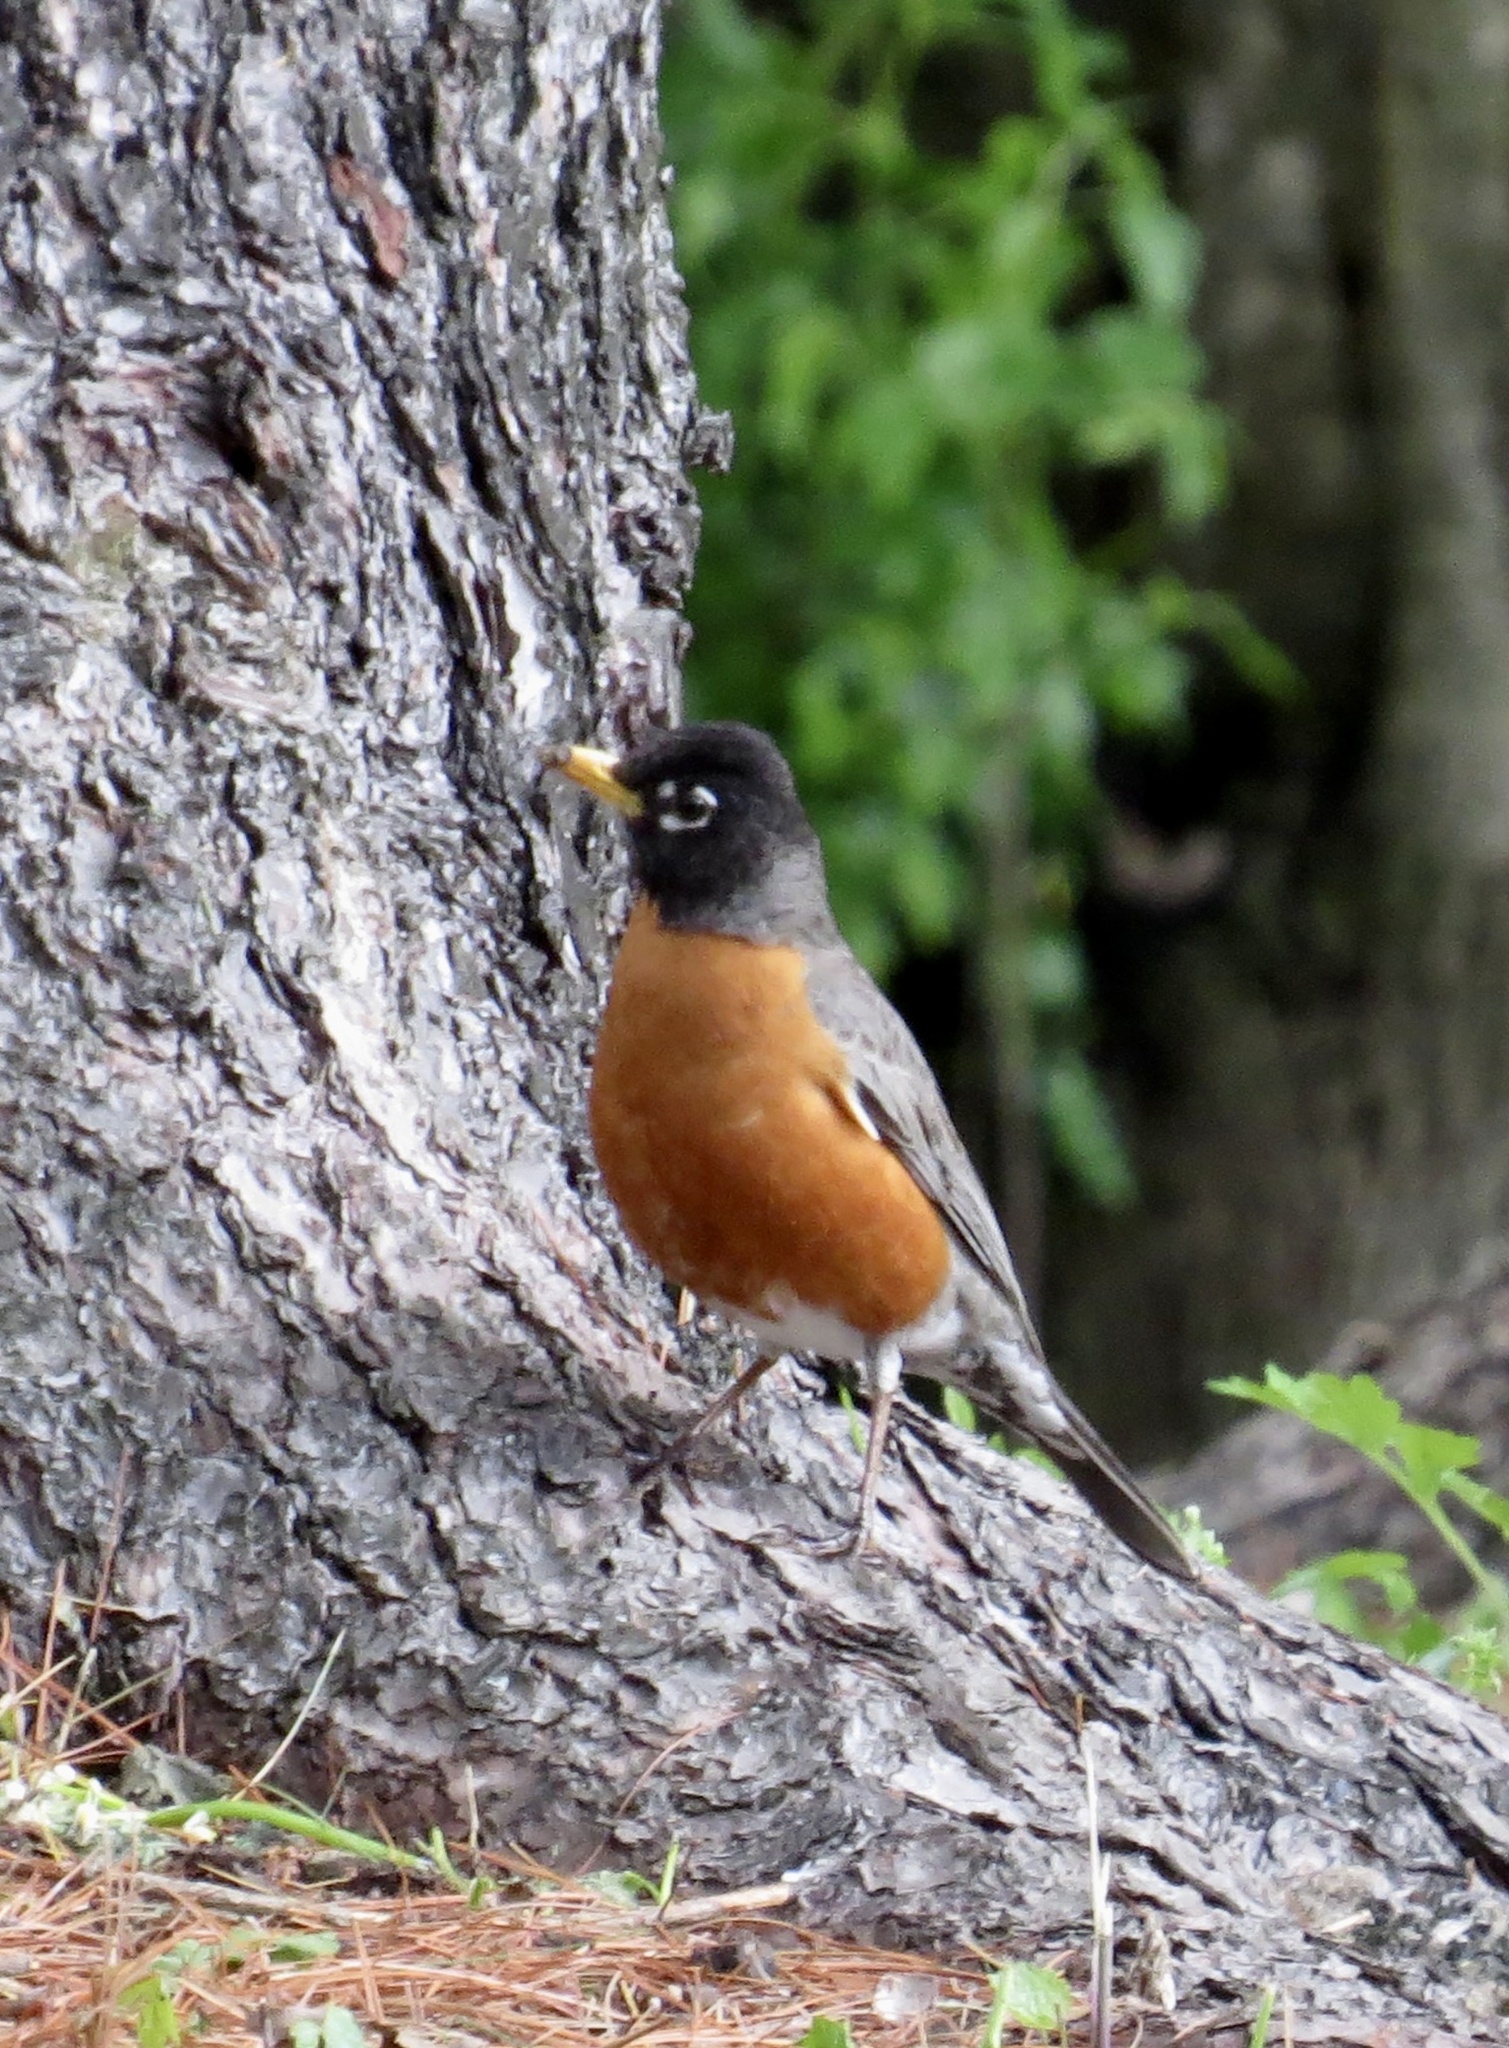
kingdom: Animalia
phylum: Chordata
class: Aves
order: Passeriformes
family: Turdidae
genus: Turdus
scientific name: Turdus migratorius
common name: American robin
